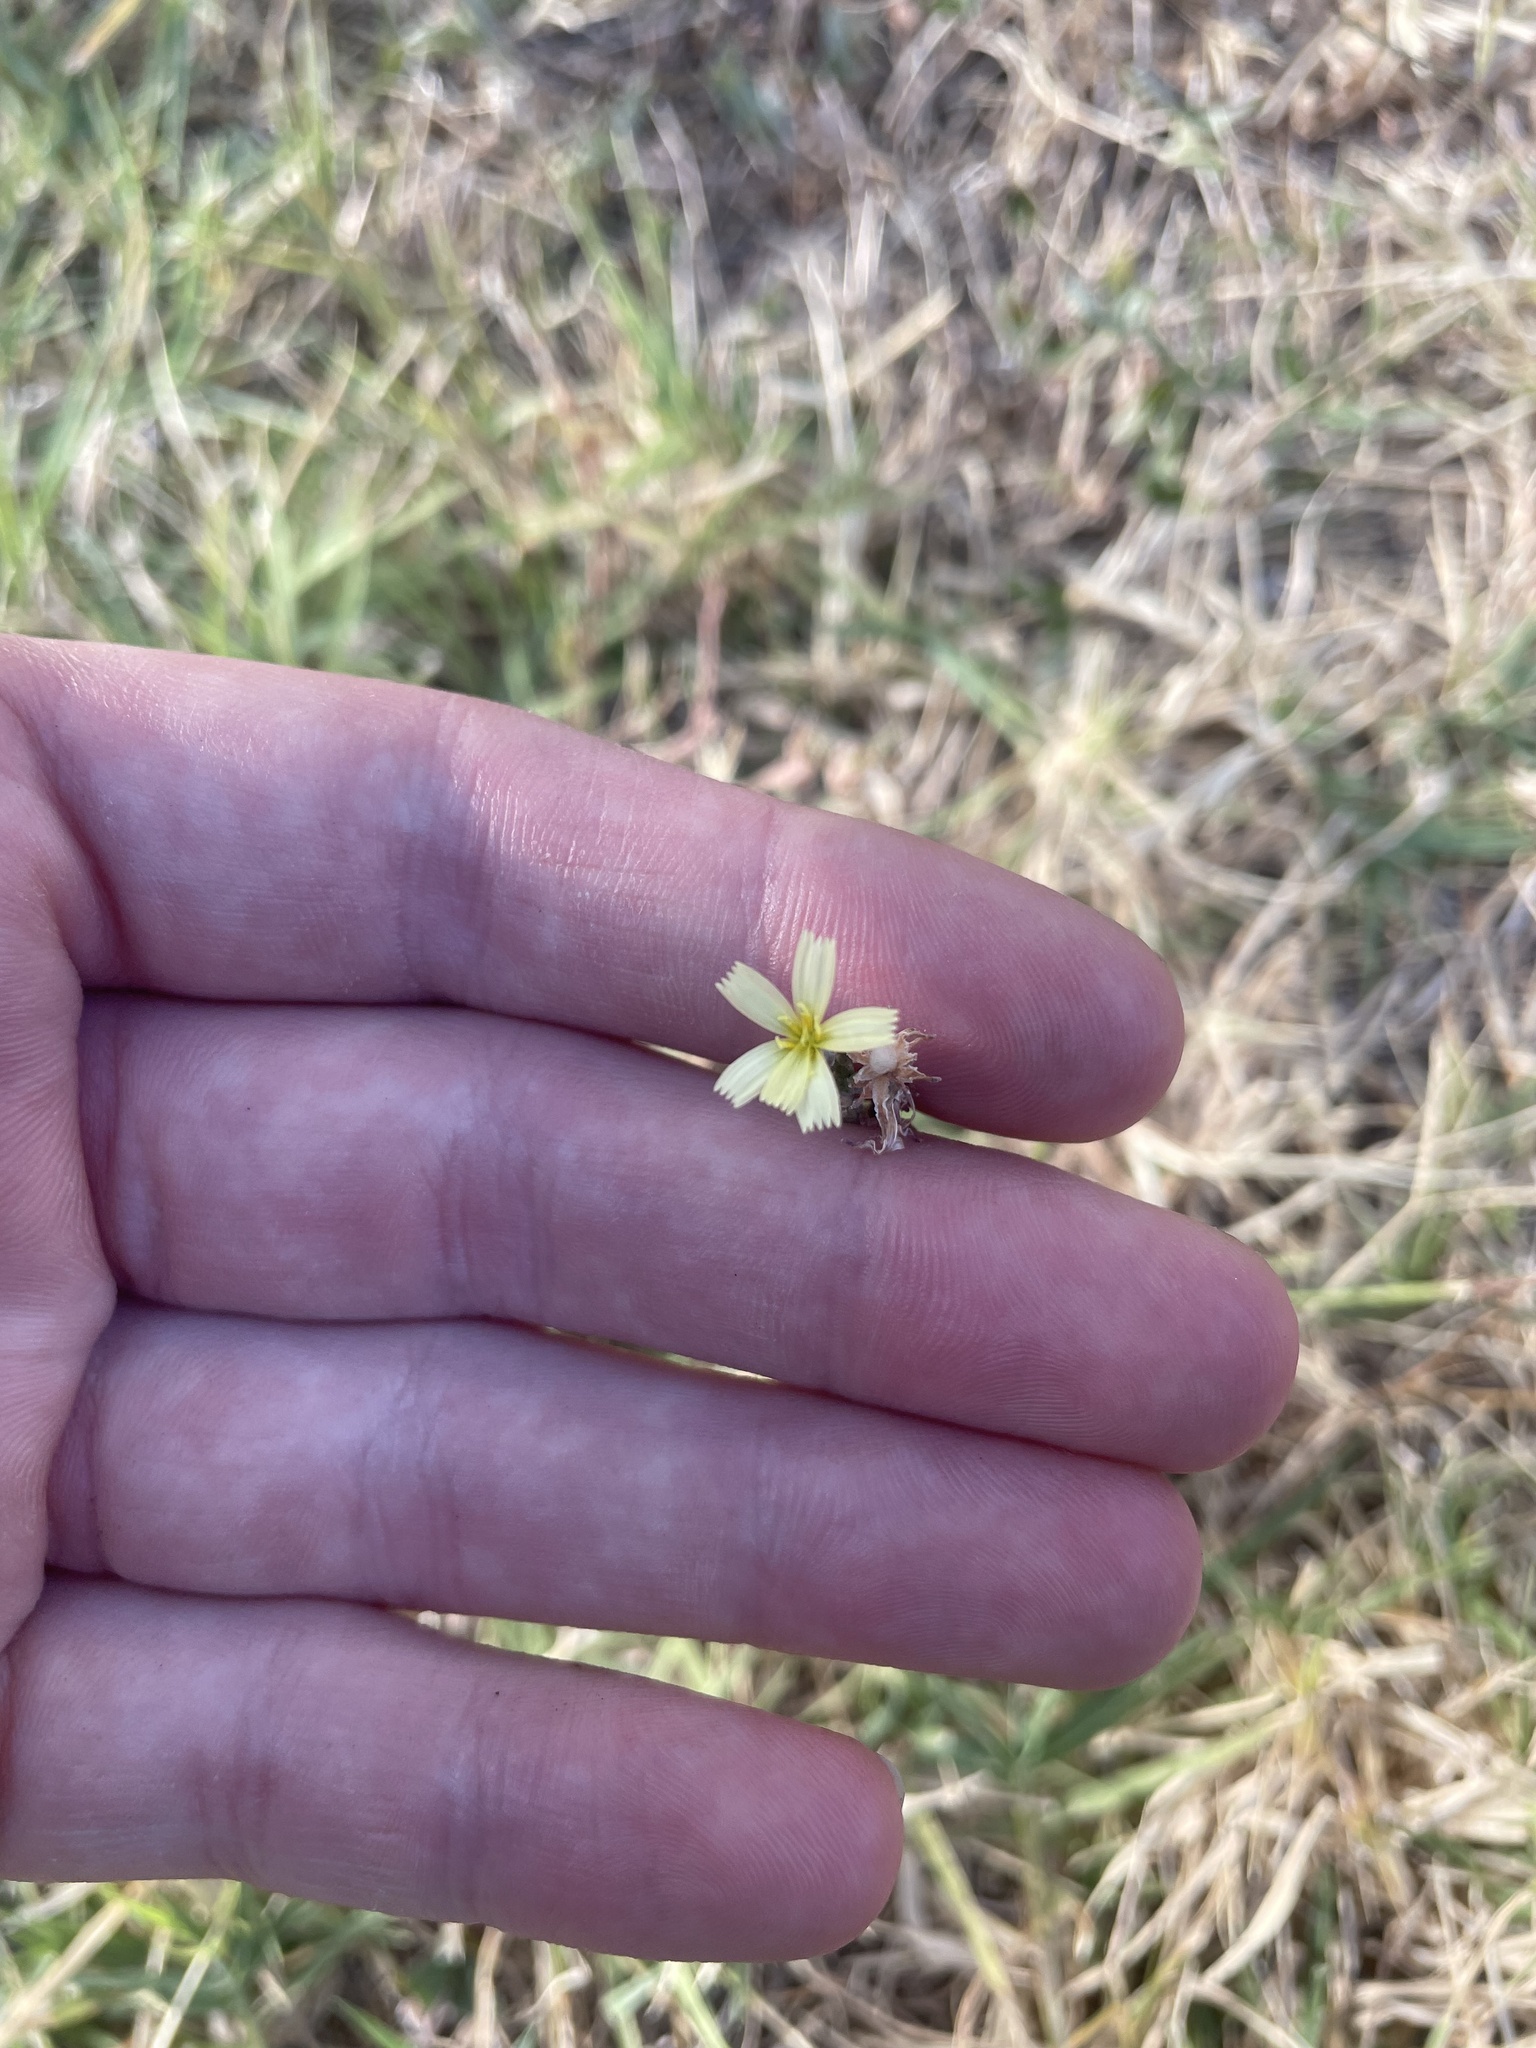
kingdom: Plantae
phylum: Tracheophyta
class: Magnoliopsida
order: Asterales
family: Asteraceae
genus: Lactuca
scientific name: Lactuca saligna
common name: Wild lettuce
